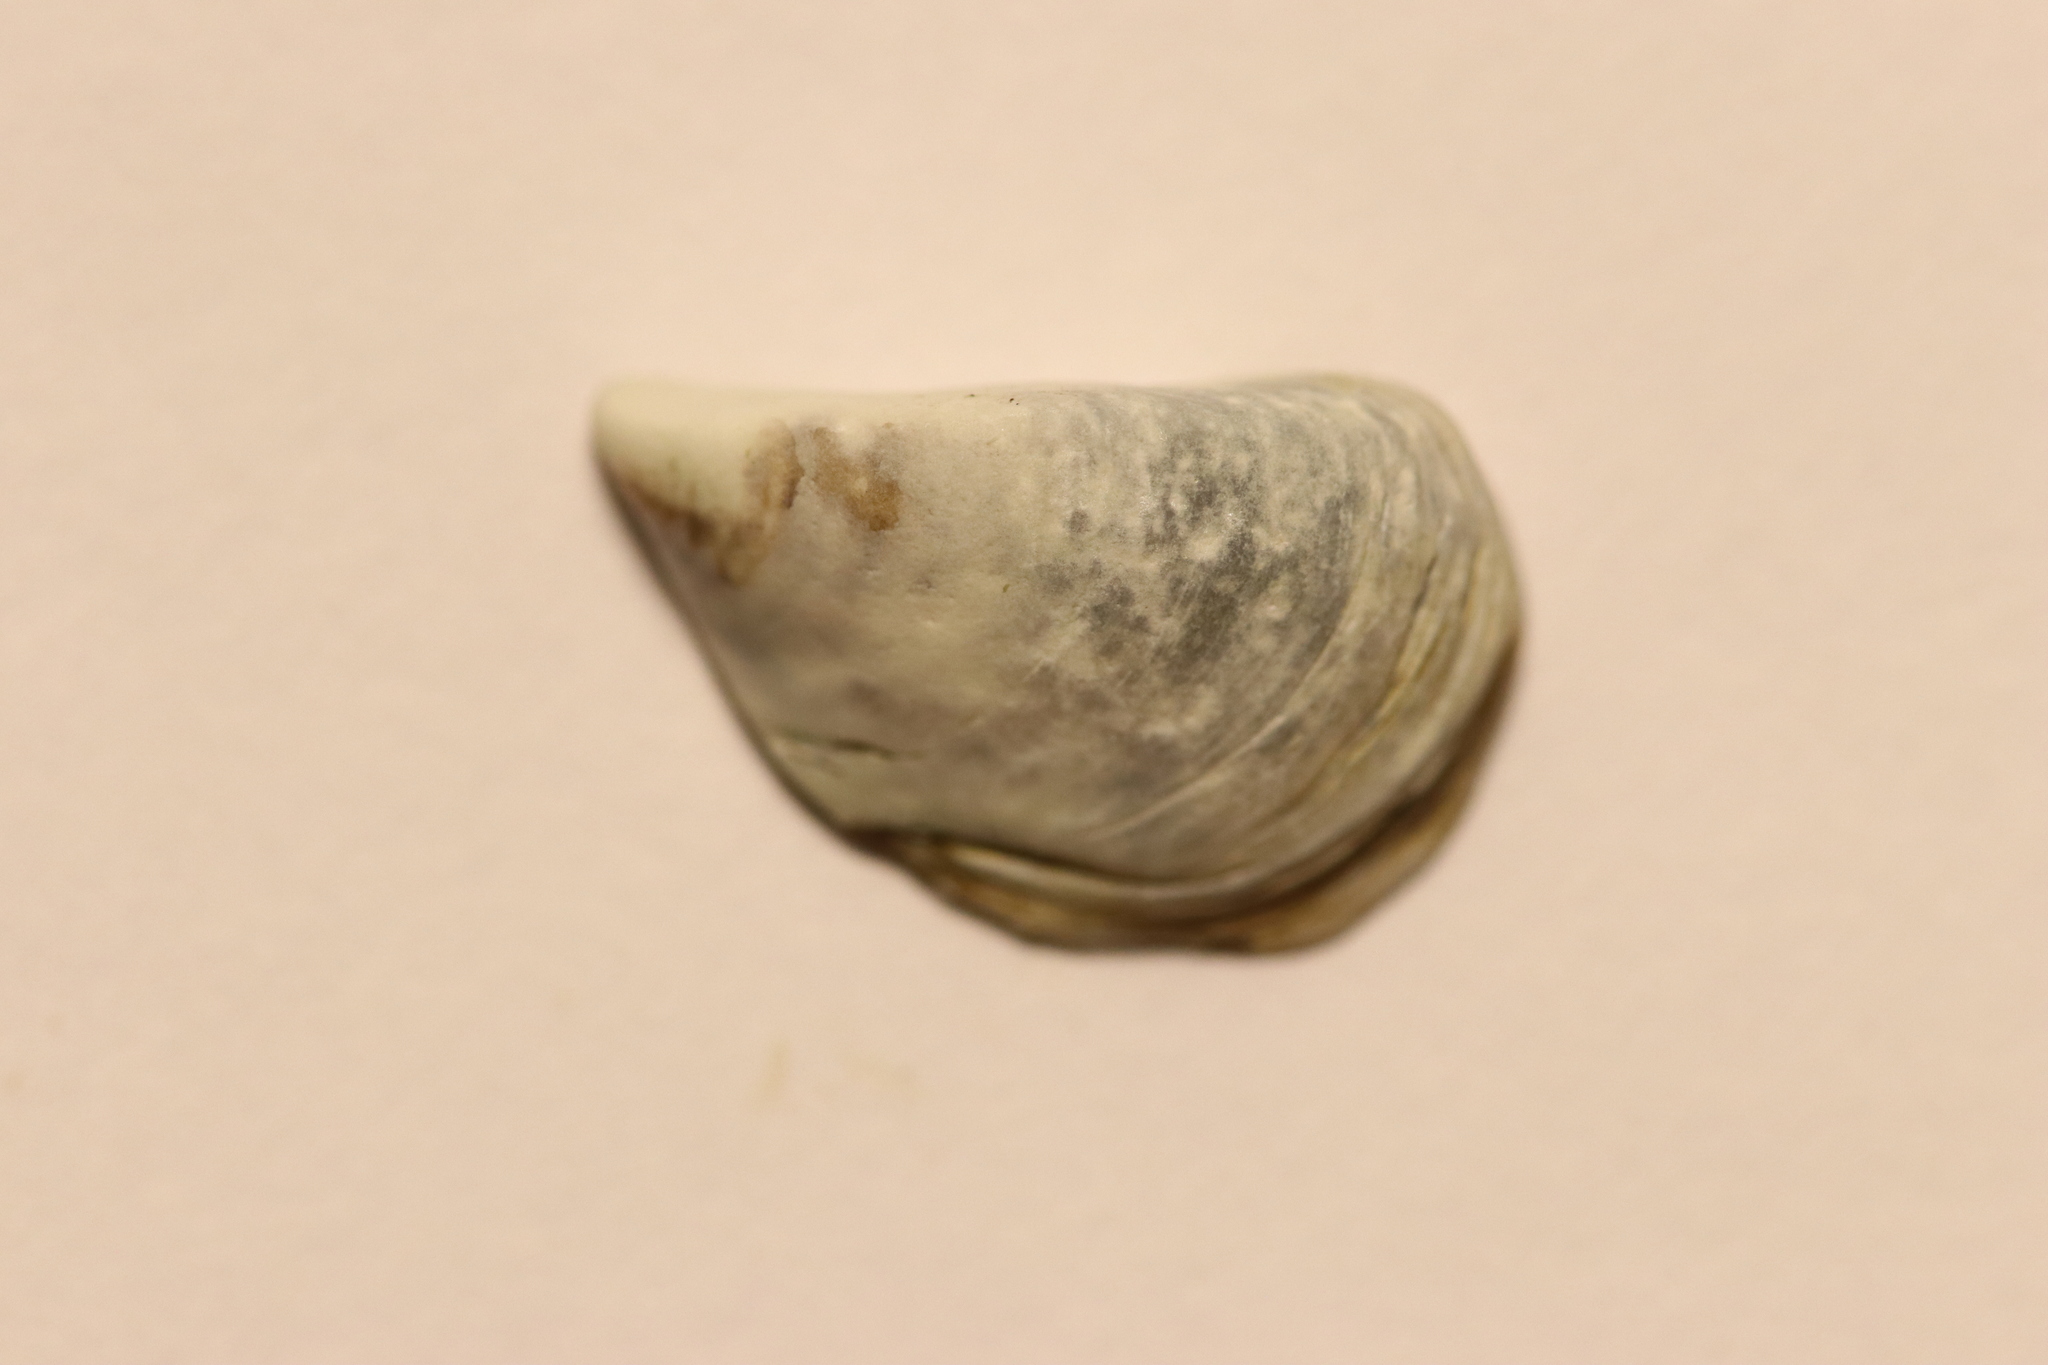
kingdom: Animalia
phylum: Mollusca
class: Bivalvia
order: Myida
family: Dreissenidae
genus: Dreissena
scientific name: Dreissena polymorpha
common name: Zebra mussel
